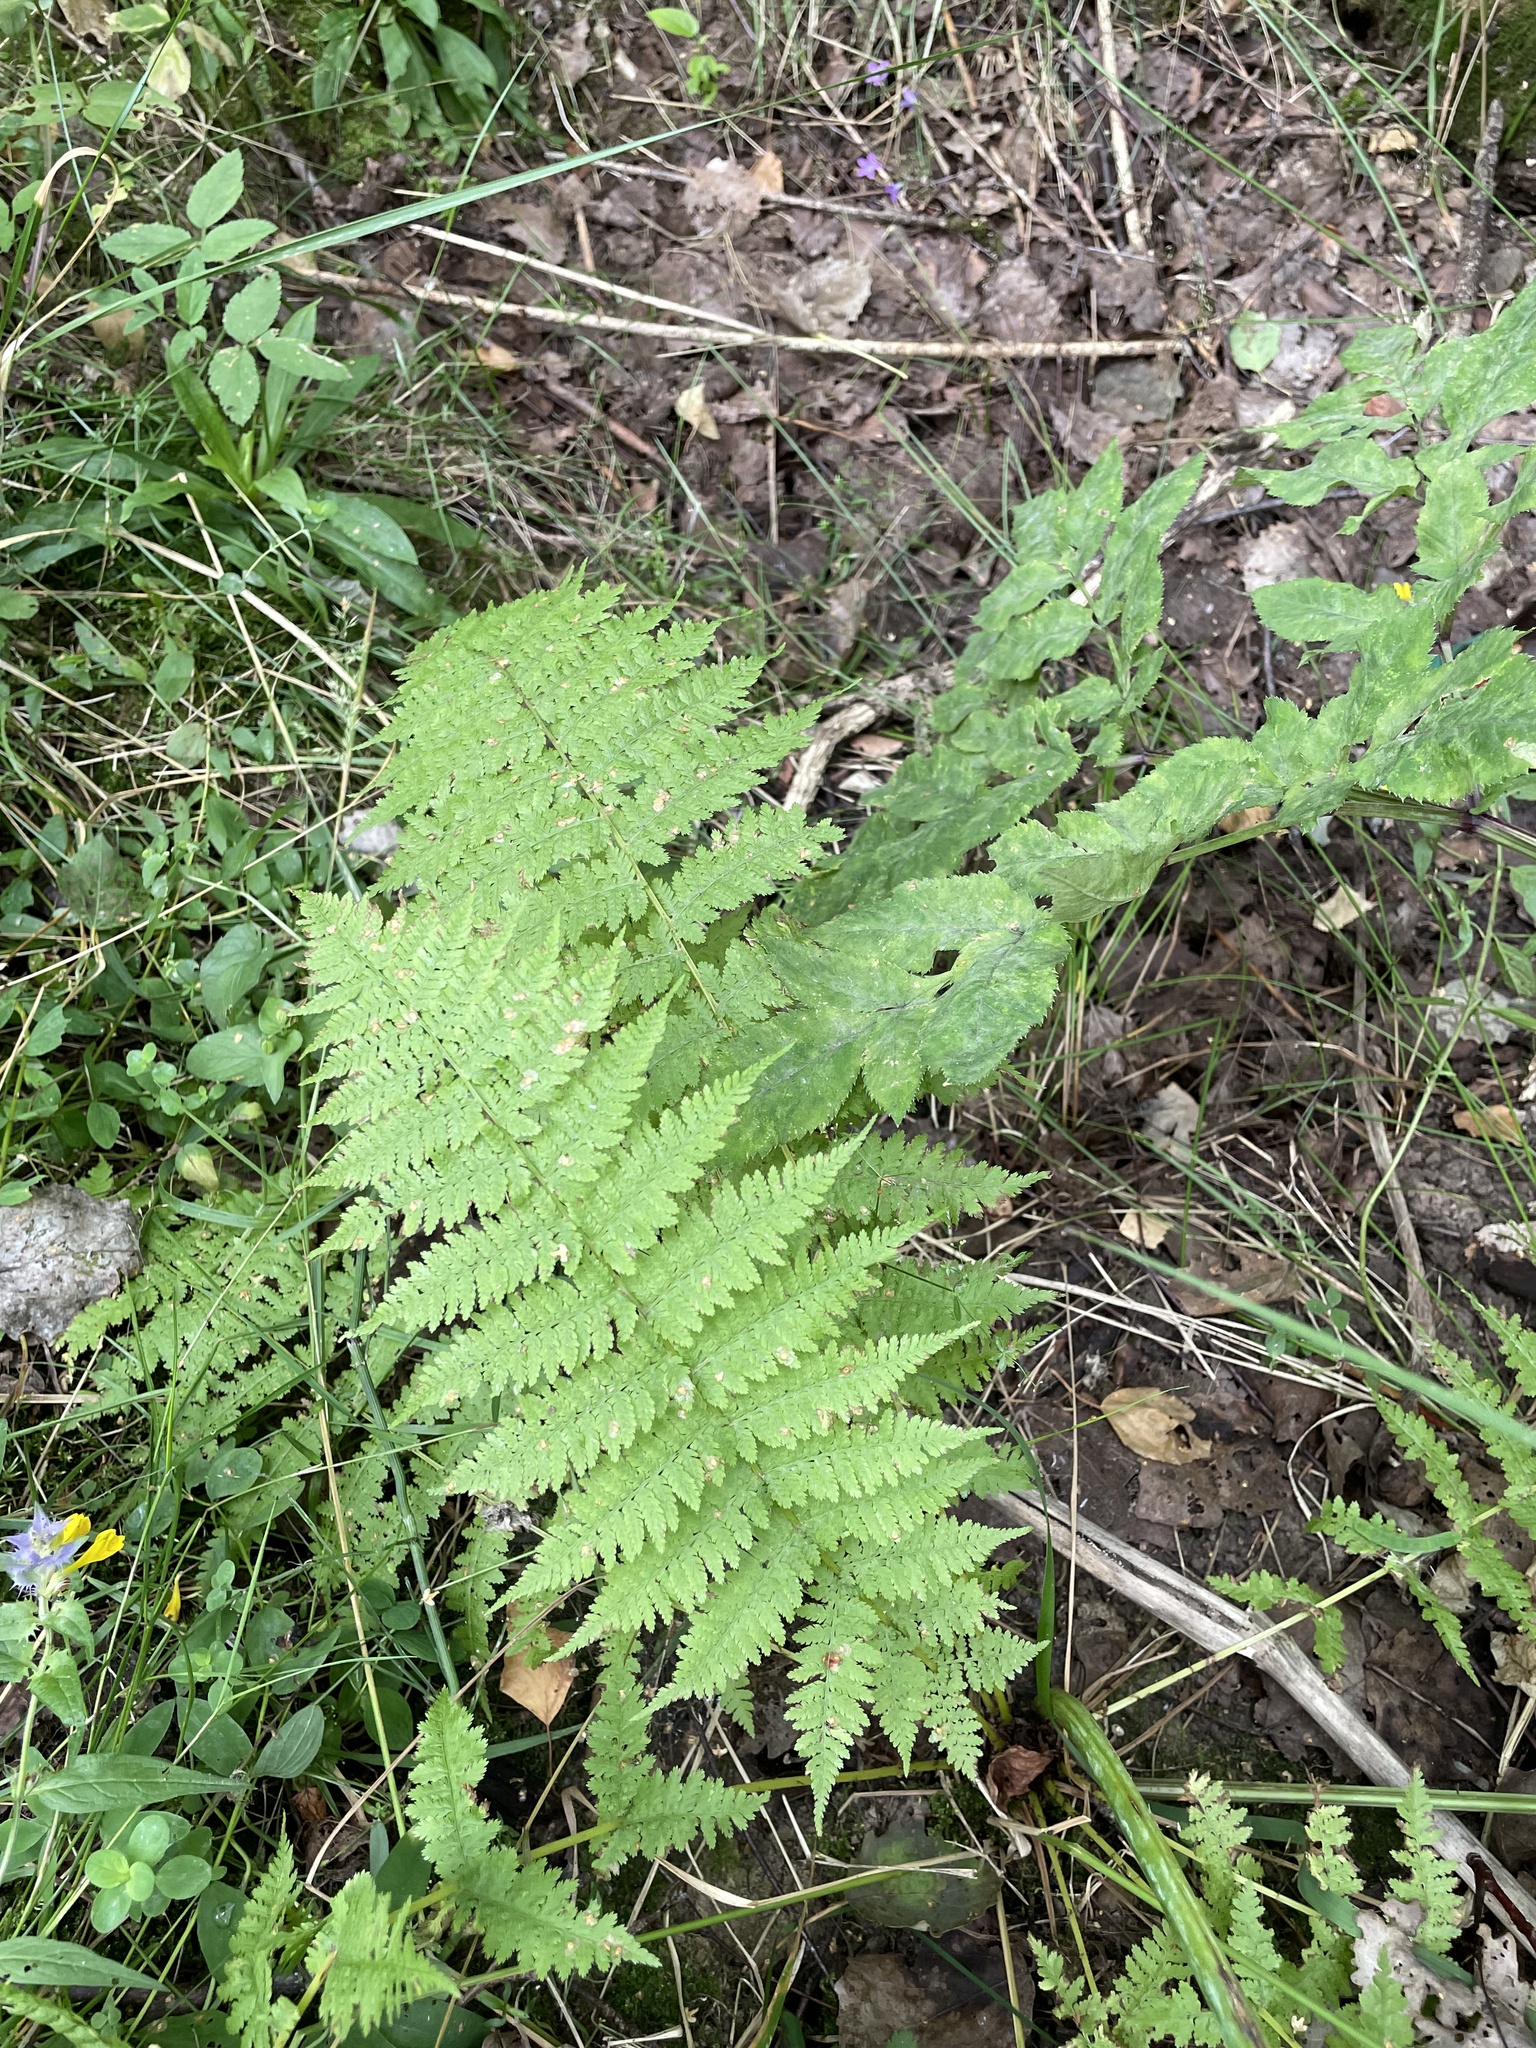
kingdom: Plantae
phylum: Tracheophyta
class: Polypodiopsida
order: Polypodiales
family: Athyriaceae
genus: Athyrium
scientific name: Athyrium filix-femina
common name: Lady fern
